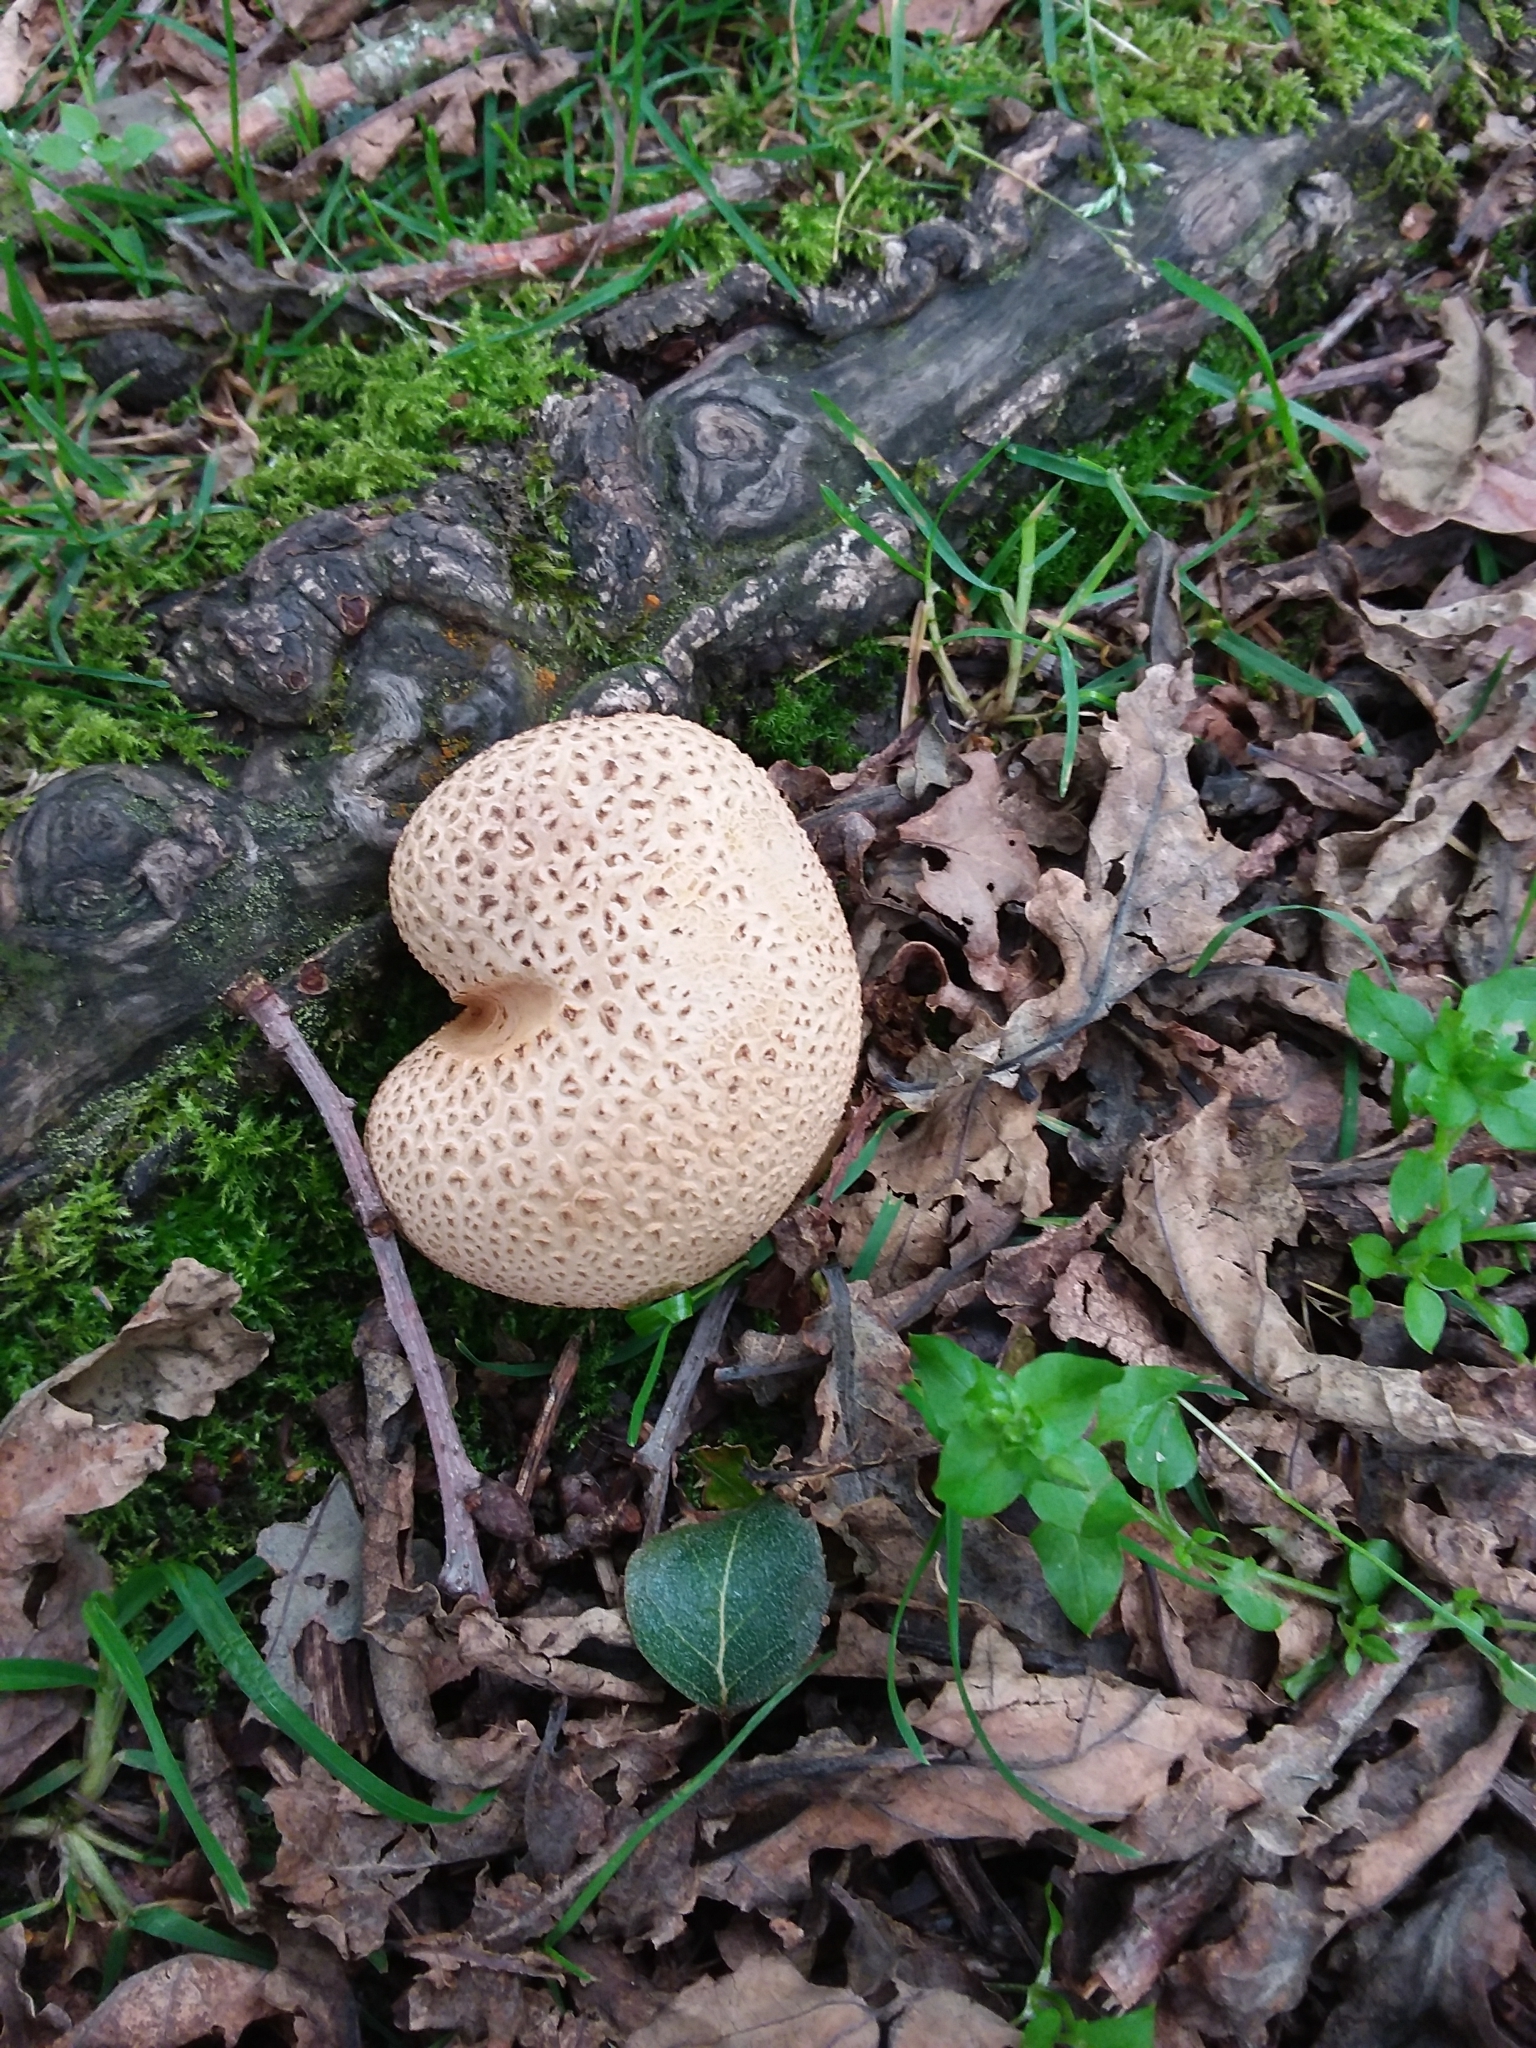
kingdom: Fungi
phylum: Basidiomycota
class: Agaricomycetes
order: Boletales
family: Sclerodermataceae
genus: Scleroderma
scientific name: Scleroderma citrinum
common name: Common earthball
